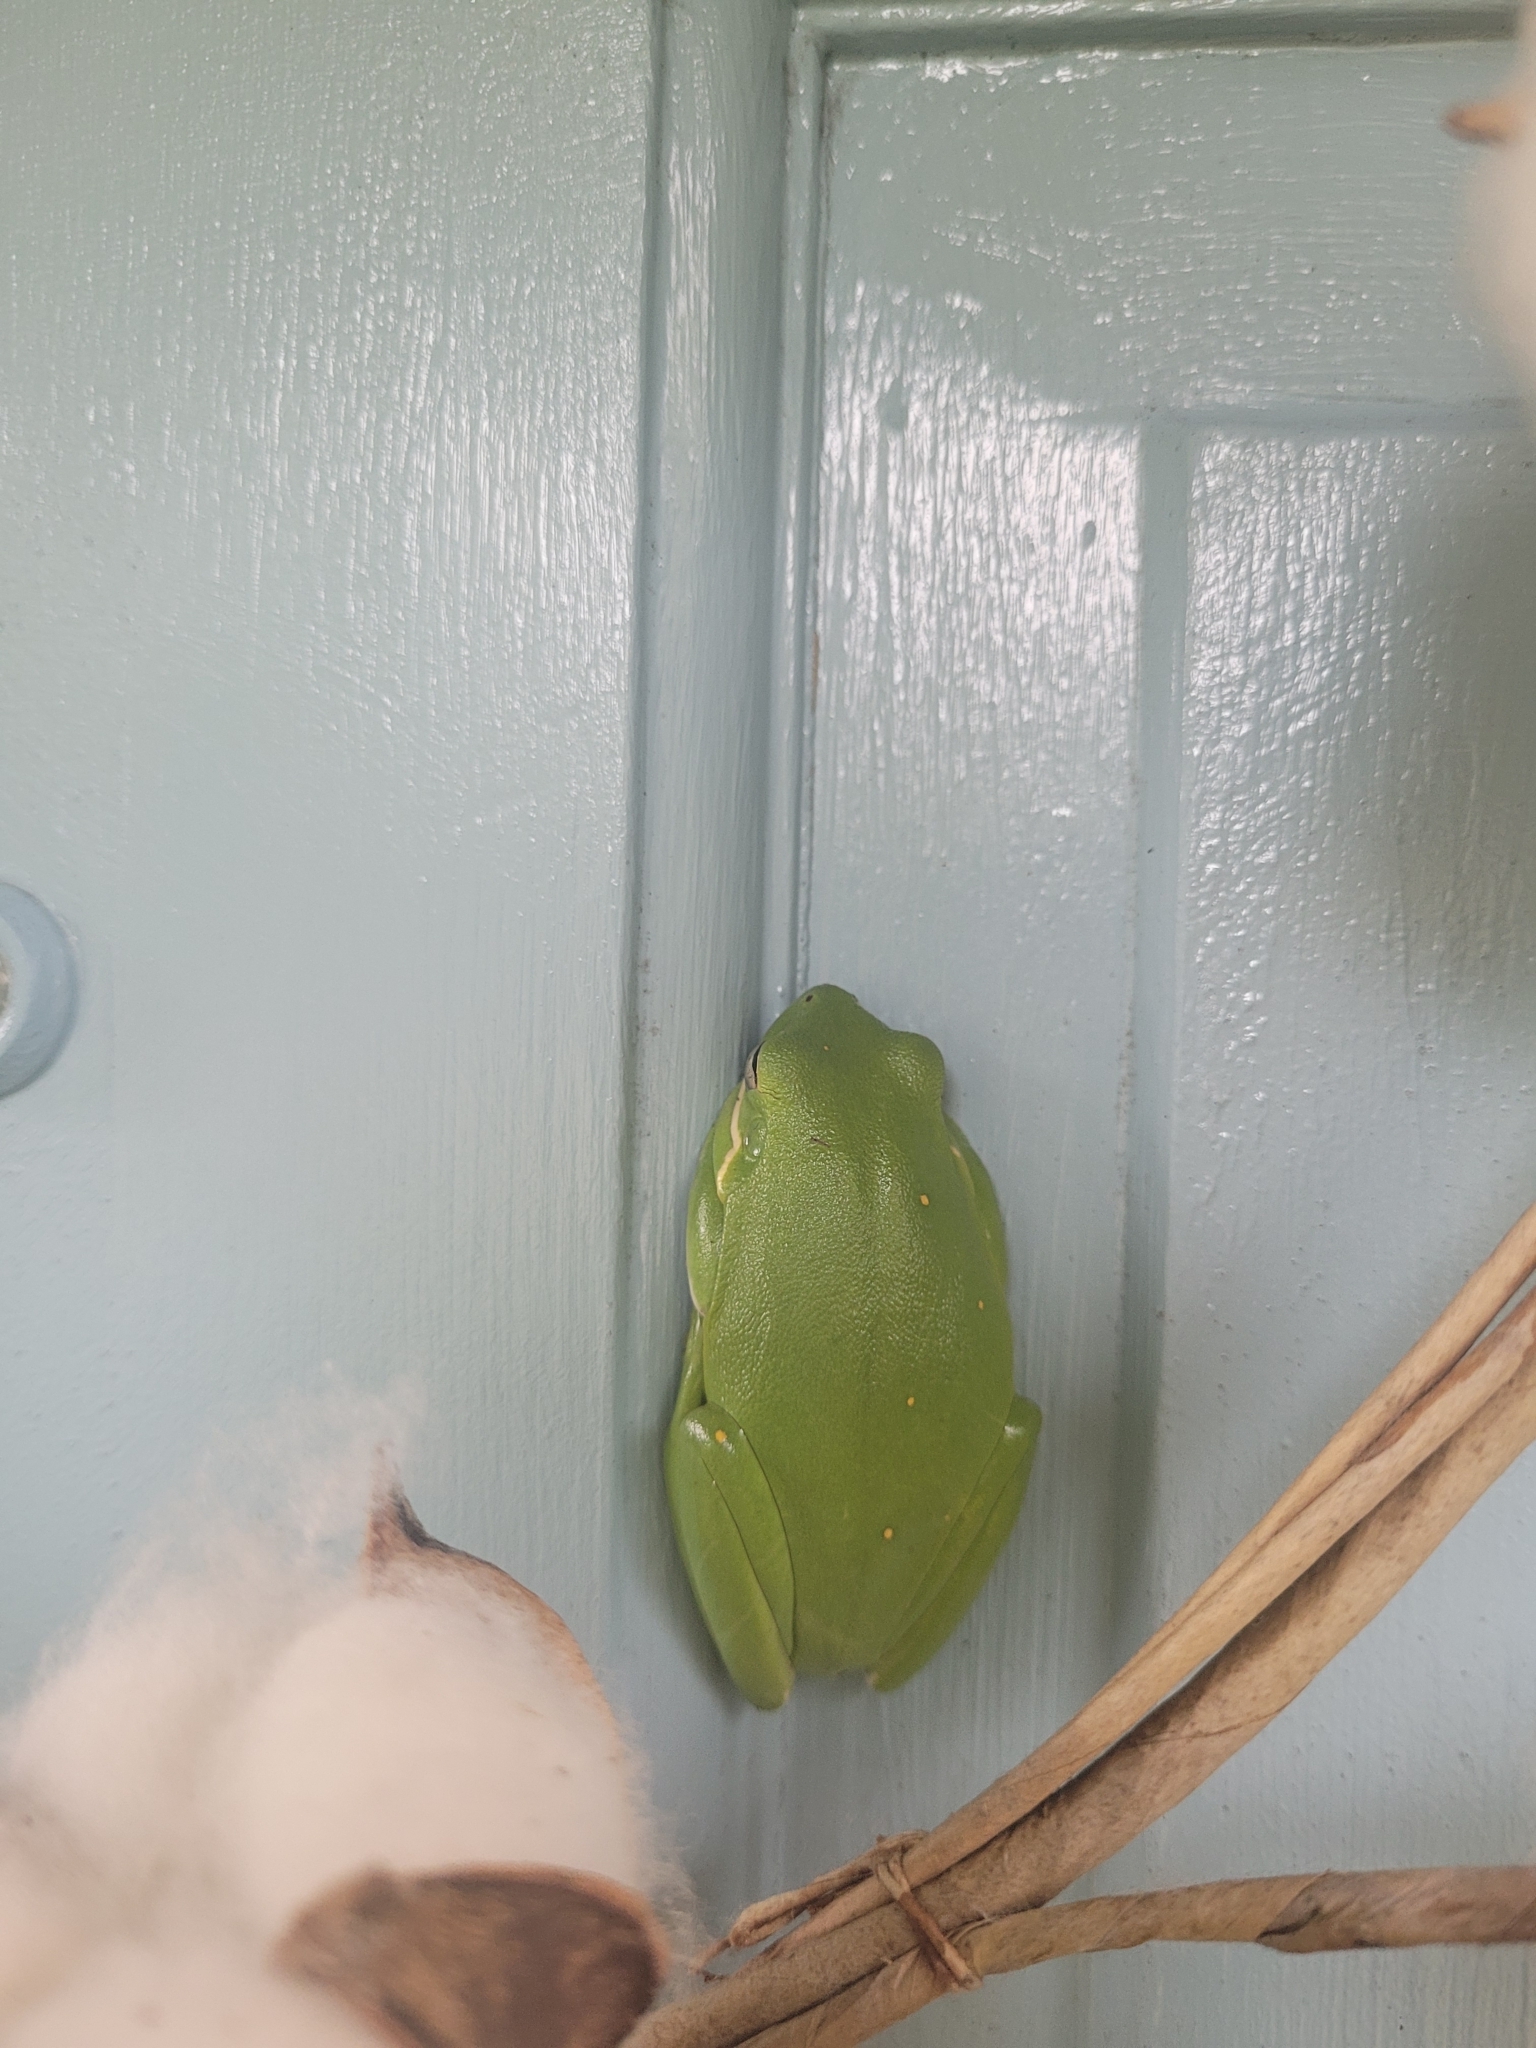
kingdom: Animalia
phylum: Chordata
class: Amphibia
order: Anura
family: Hylidae
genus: Dryophytes
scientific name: Dryophytes cinereus
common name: Green treefrog
